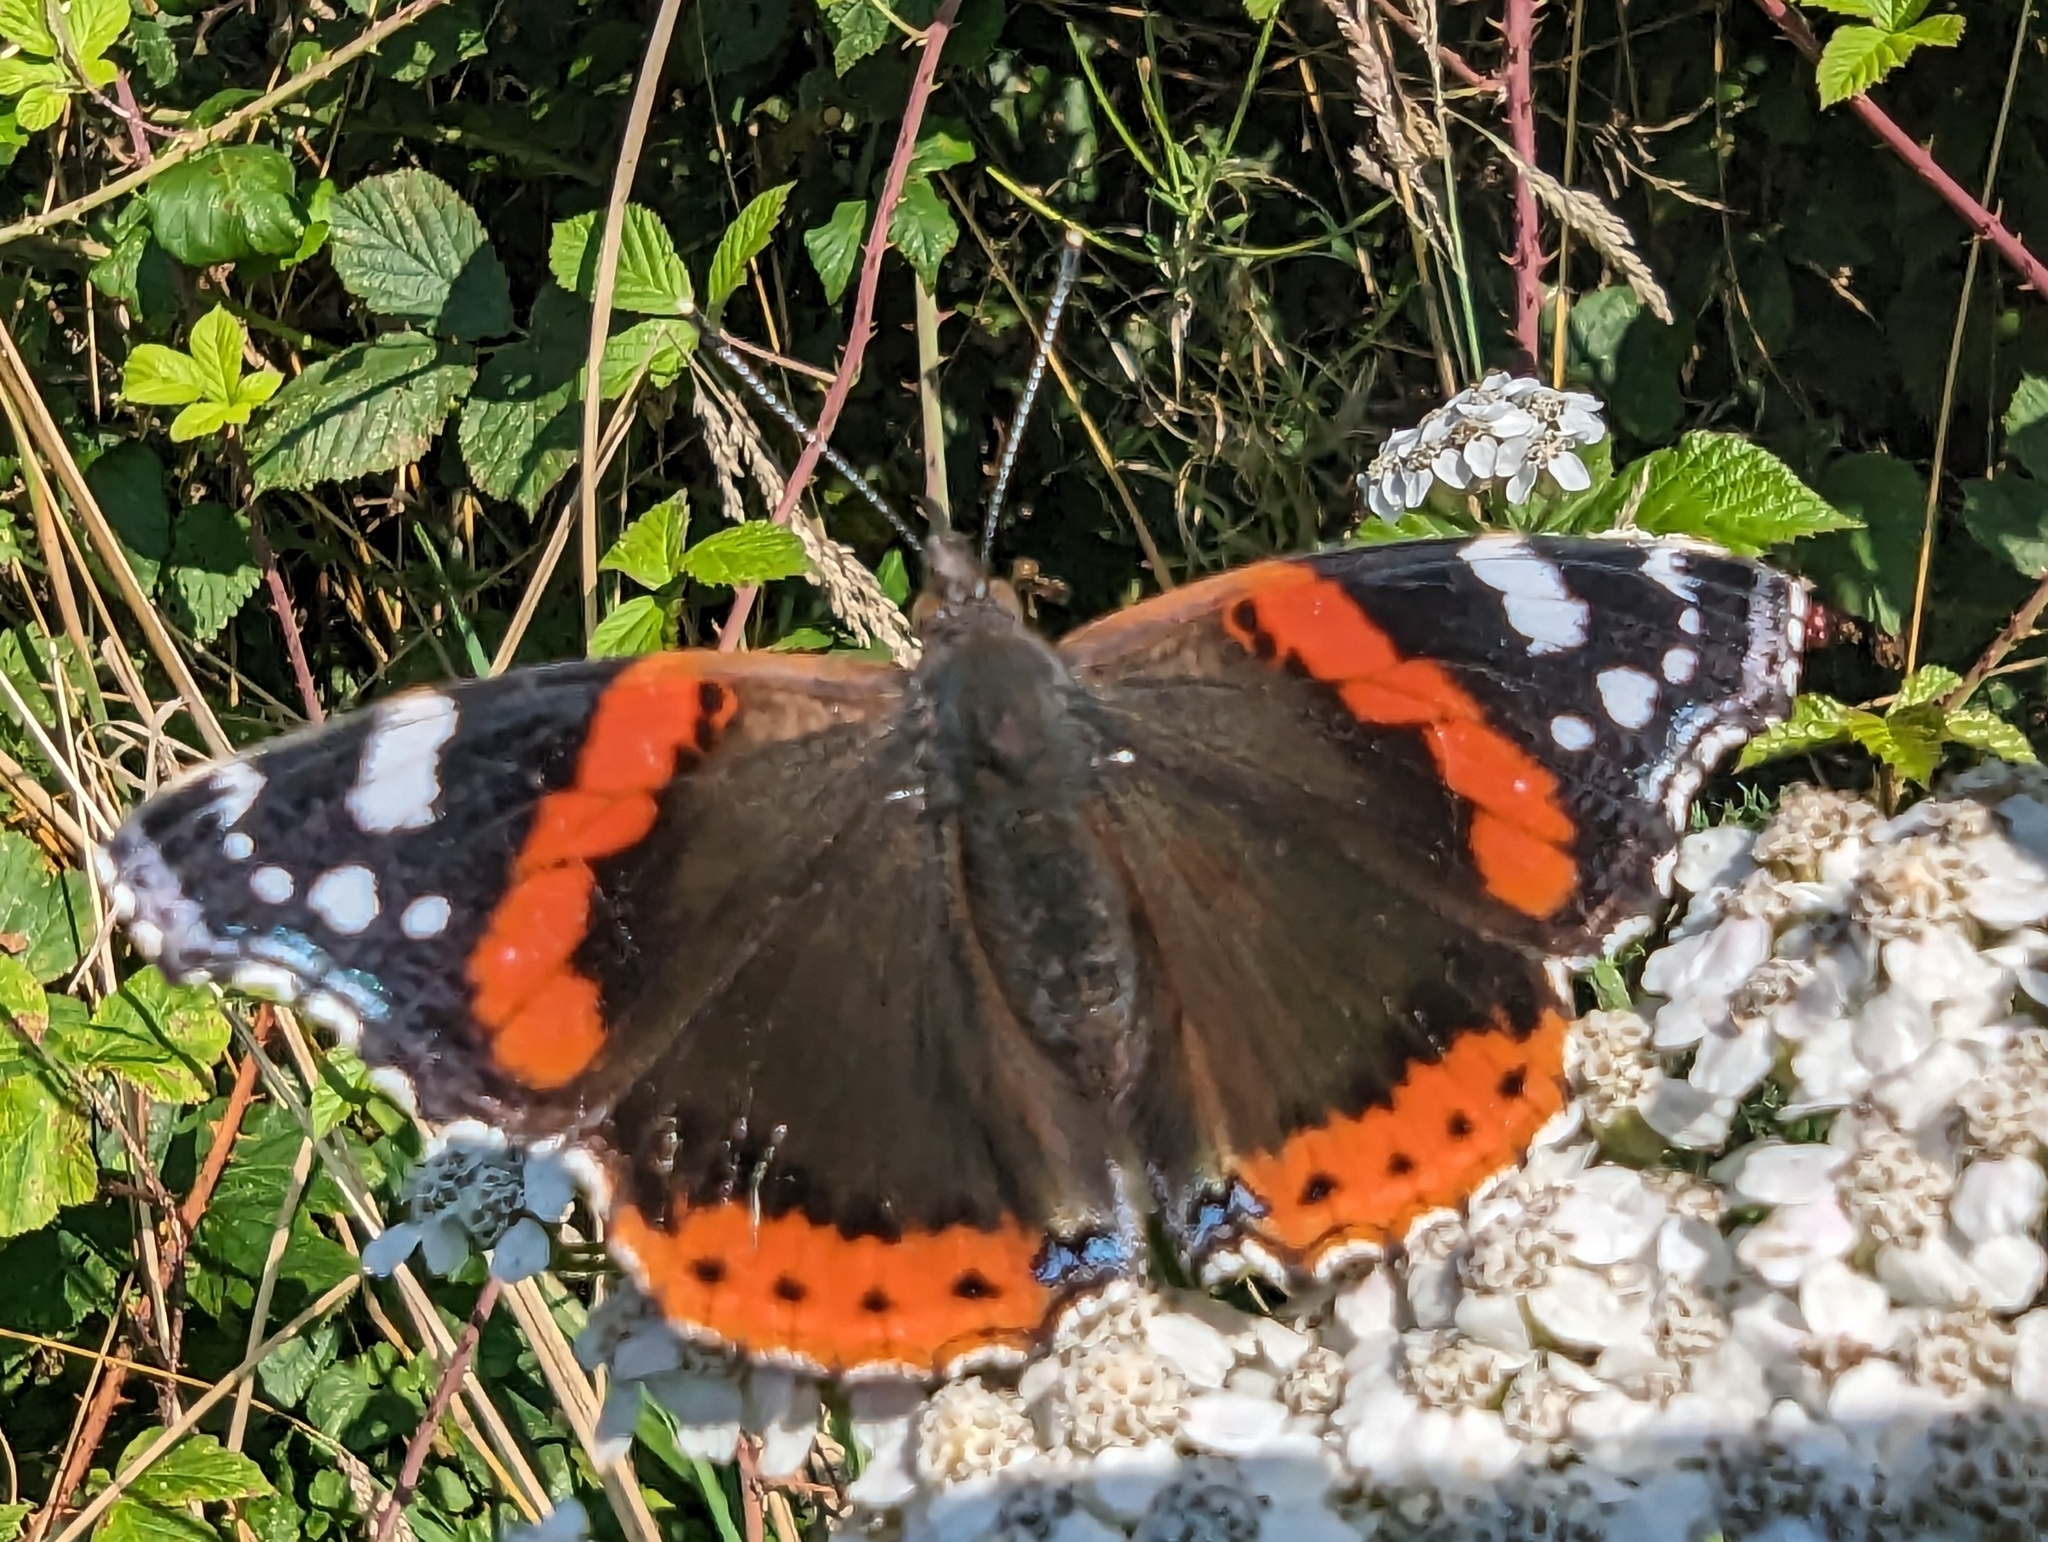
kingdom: Animalia
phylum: Arthropoda
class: Insecta
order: Lepidoptera
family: Nymphalidae
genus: Vanessa
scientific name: Vanessa atalanta
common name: Red admiral
